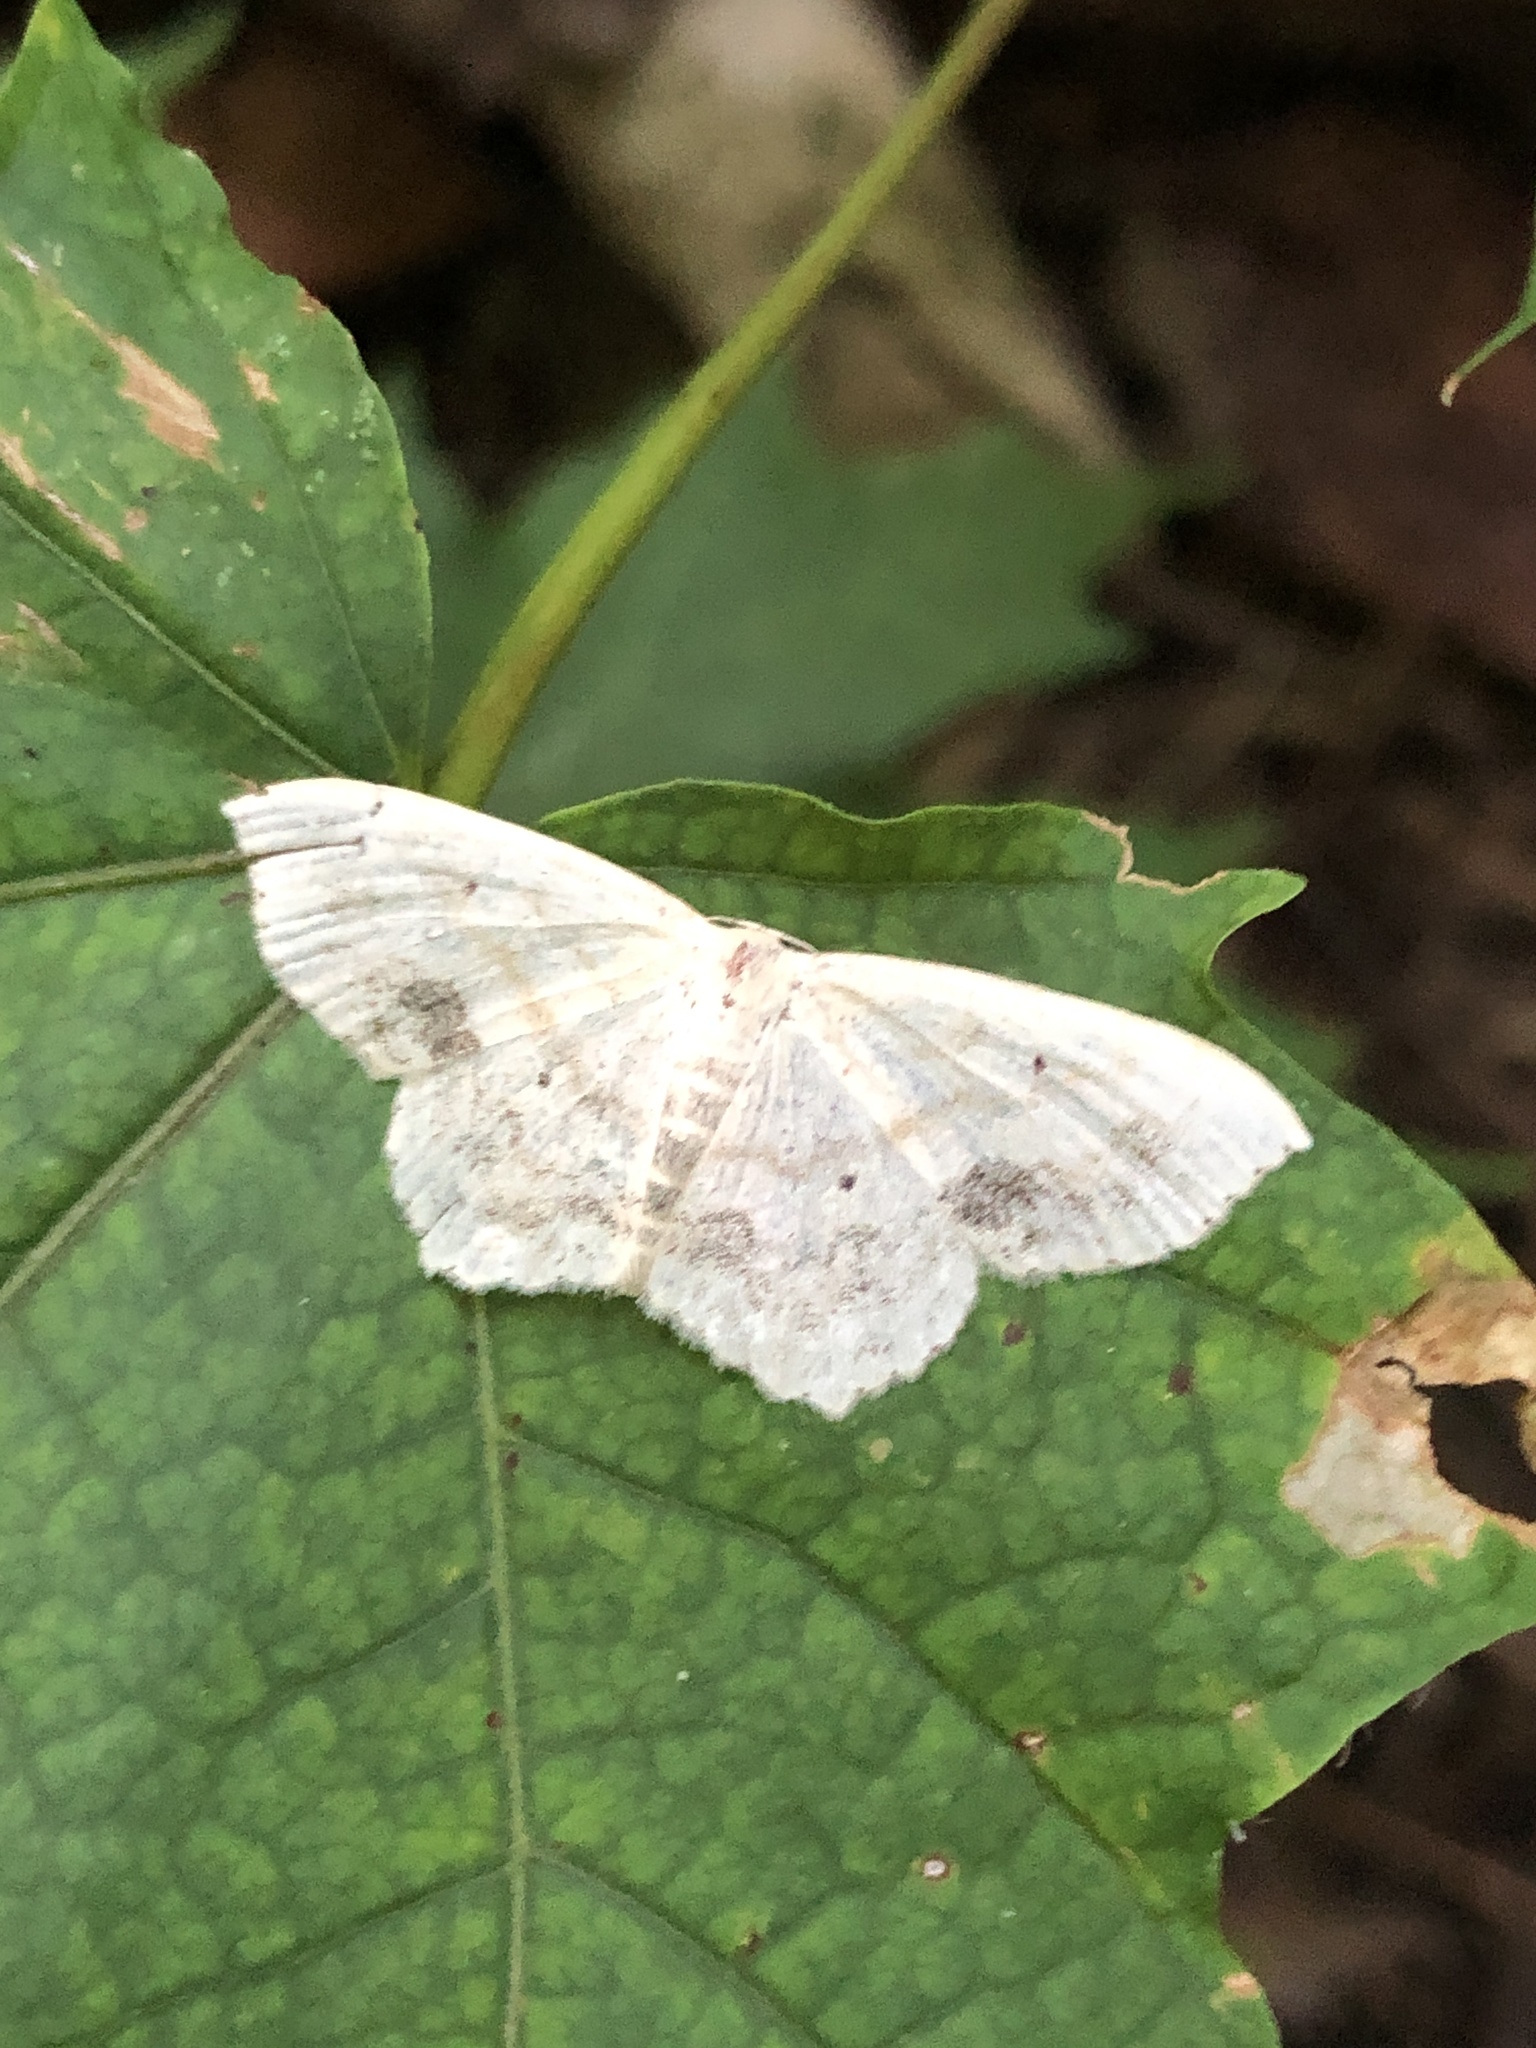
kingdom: Animalia
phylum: Arthropoda
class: Insecta
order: Lepidoptera
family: Geometridae
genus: Scopula
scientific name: Scopula limboundata
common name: Large lace border
